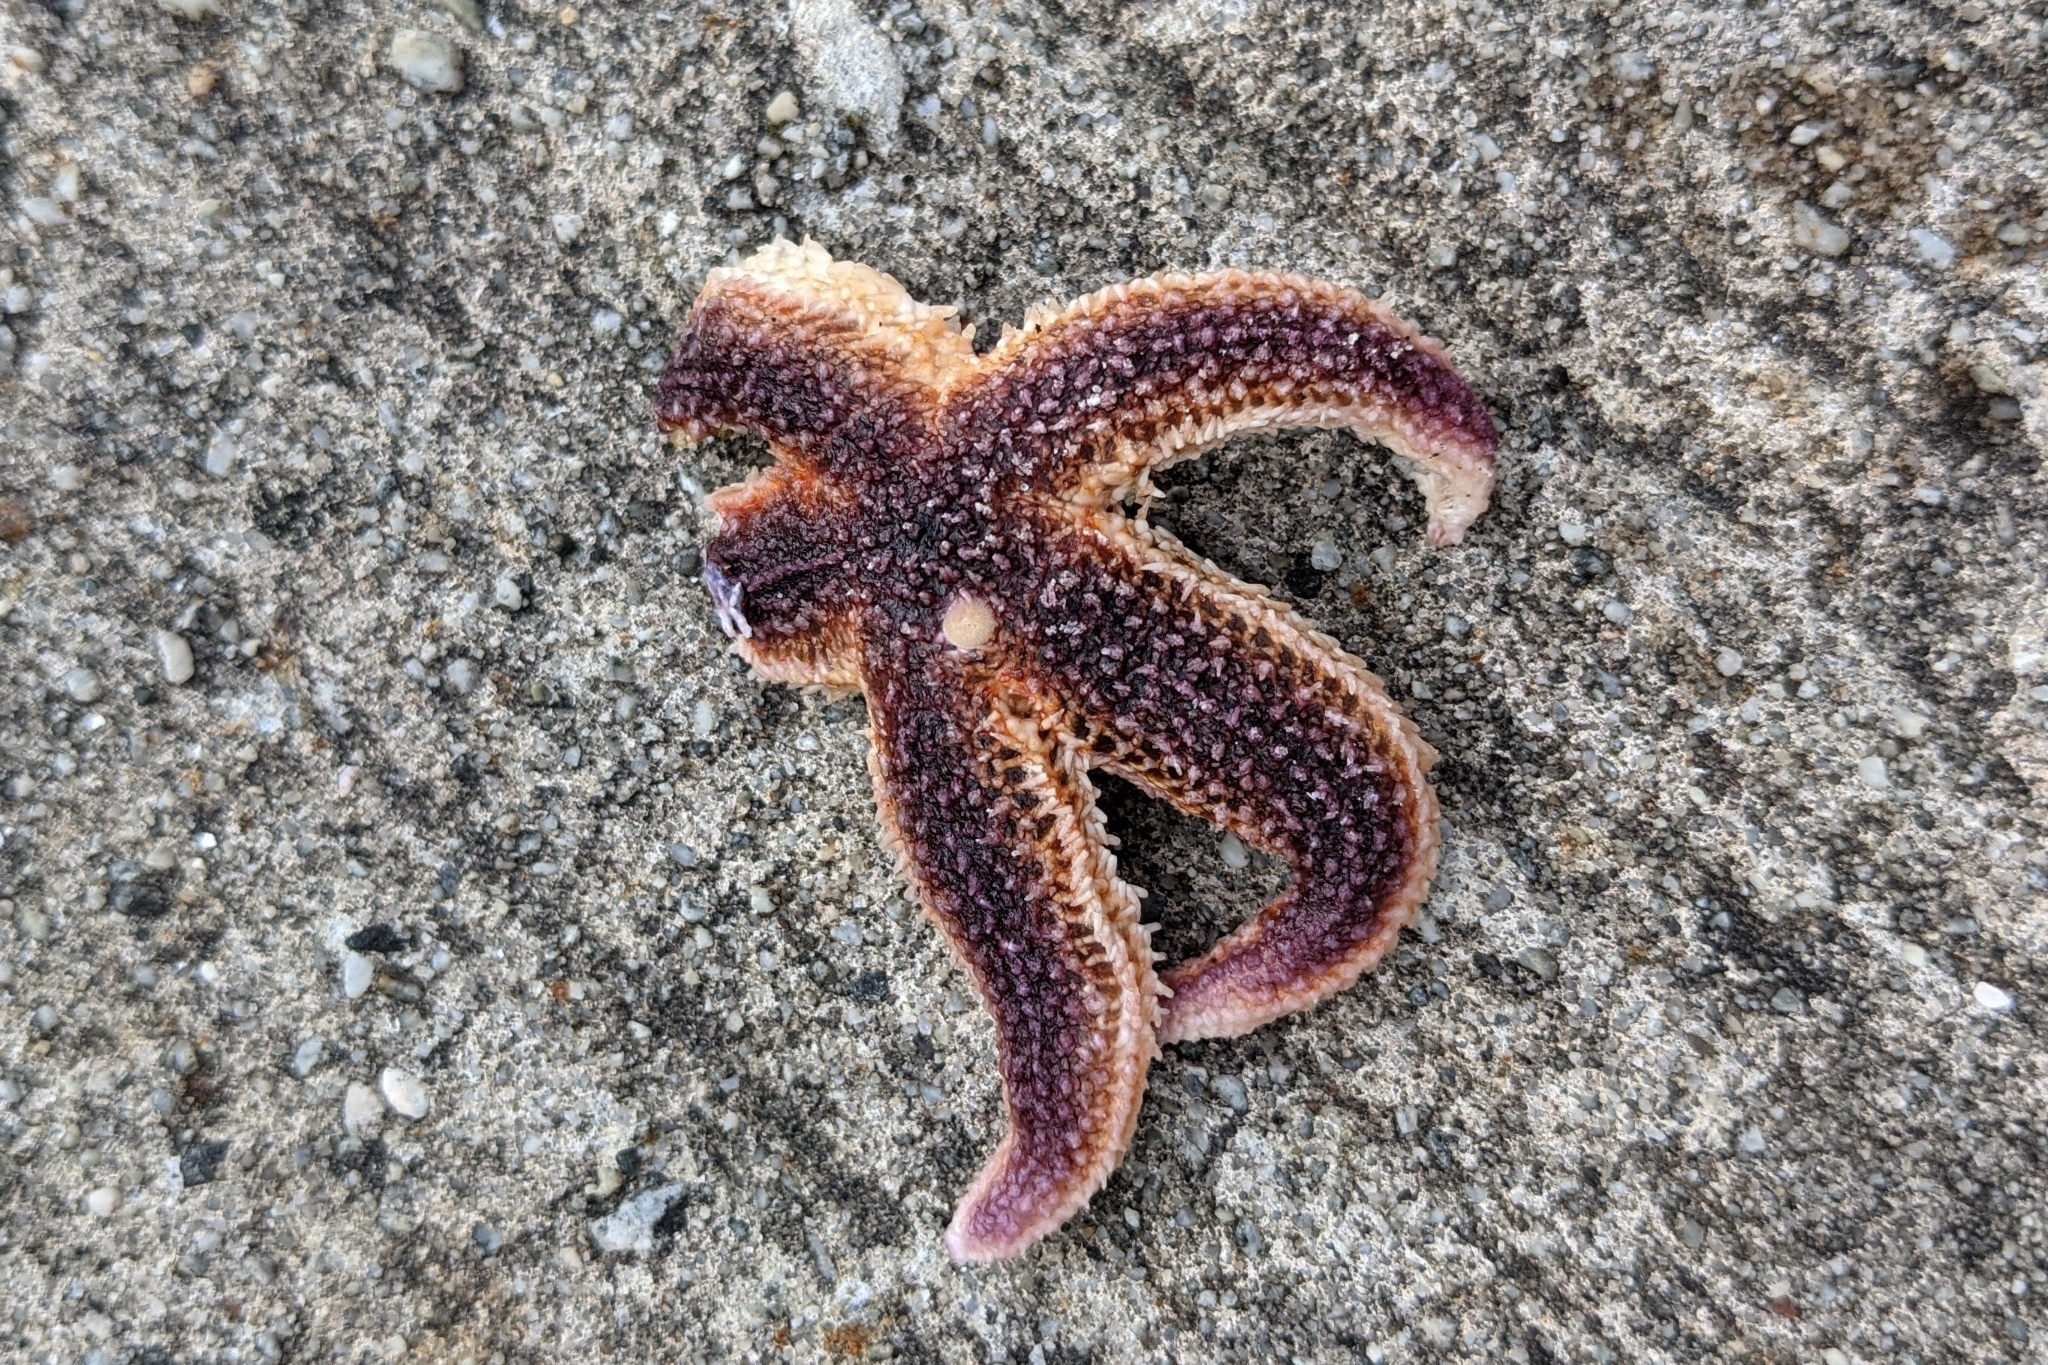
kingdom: Animalia
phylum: Echinodermata
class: Asteroidea
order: Forcipulatida
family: Asteriidae
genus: Asterias
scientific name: Asterias rubens
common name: Common starfish
